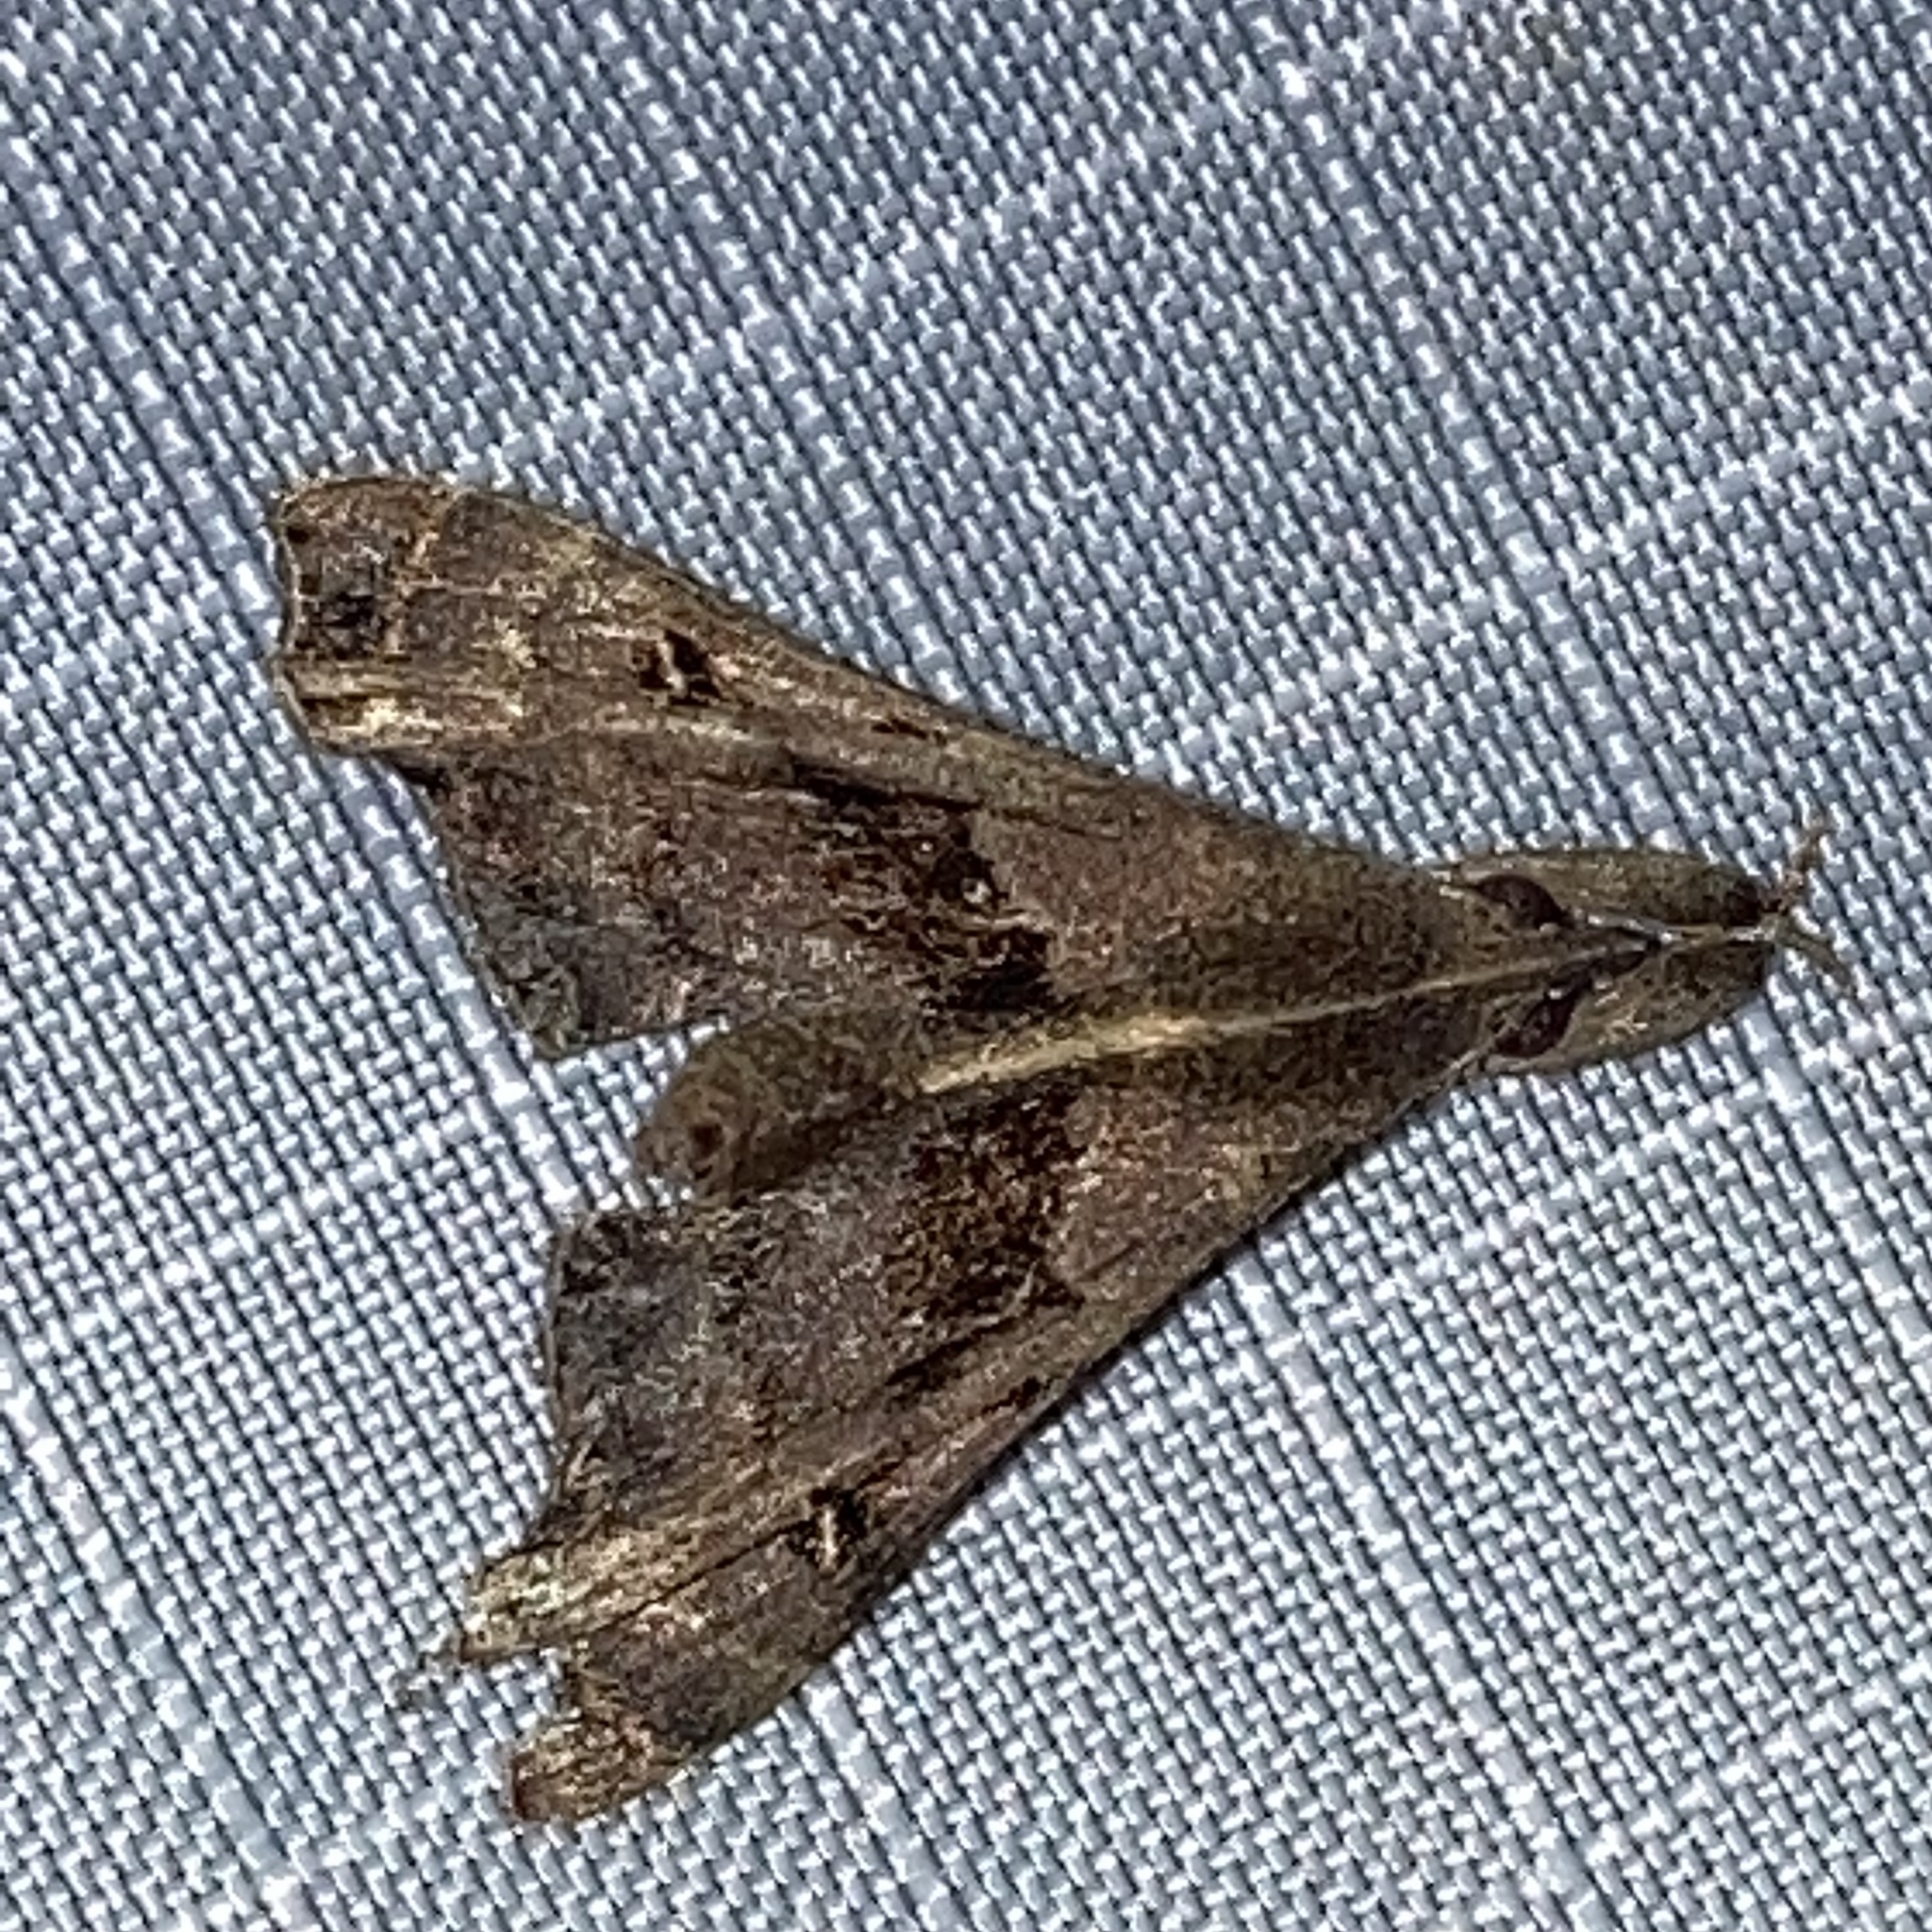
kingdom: Animalia
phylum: Arthropoda
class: Insecta
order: Lepidoptera
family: Erebidae
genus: Palthis
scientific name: Palthis asopialis
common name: Faint-spotted palthis moth
